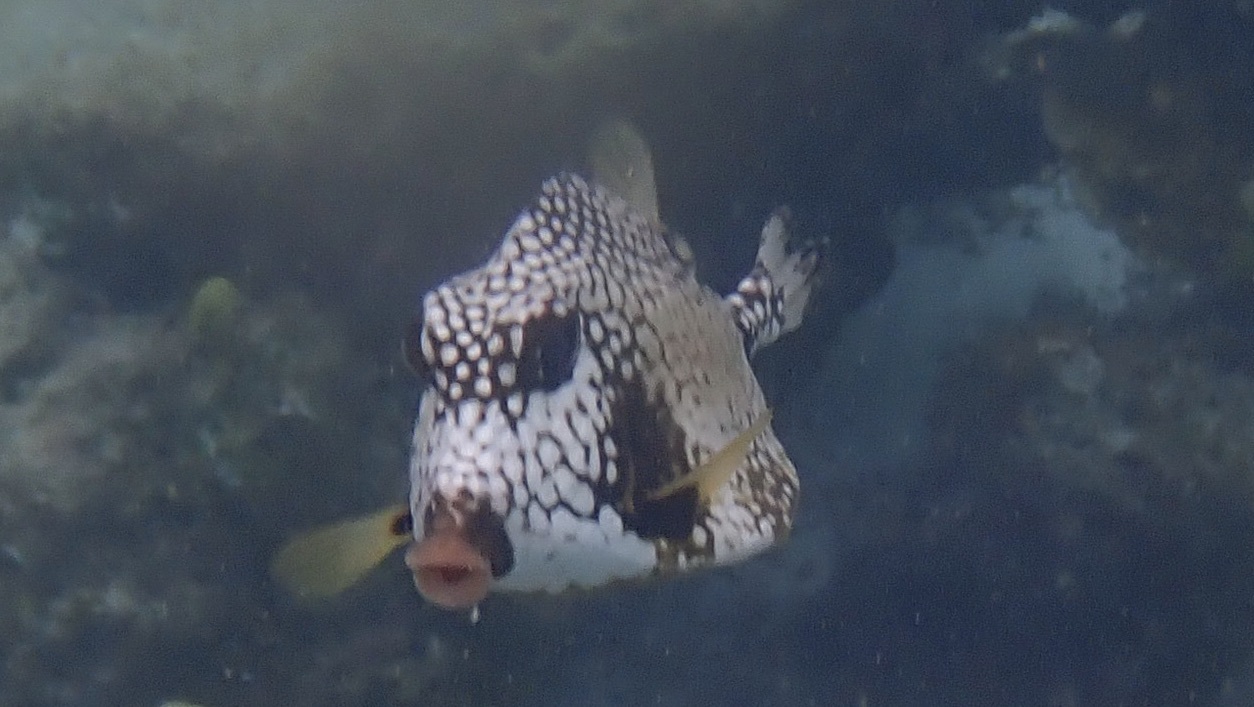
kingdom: Animalia
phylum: Chordata
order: Tetraodontiformes
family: Ostraciidae
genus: Lactophrys
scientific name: Lactophrys triqueter
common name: Smooth trunkfish
